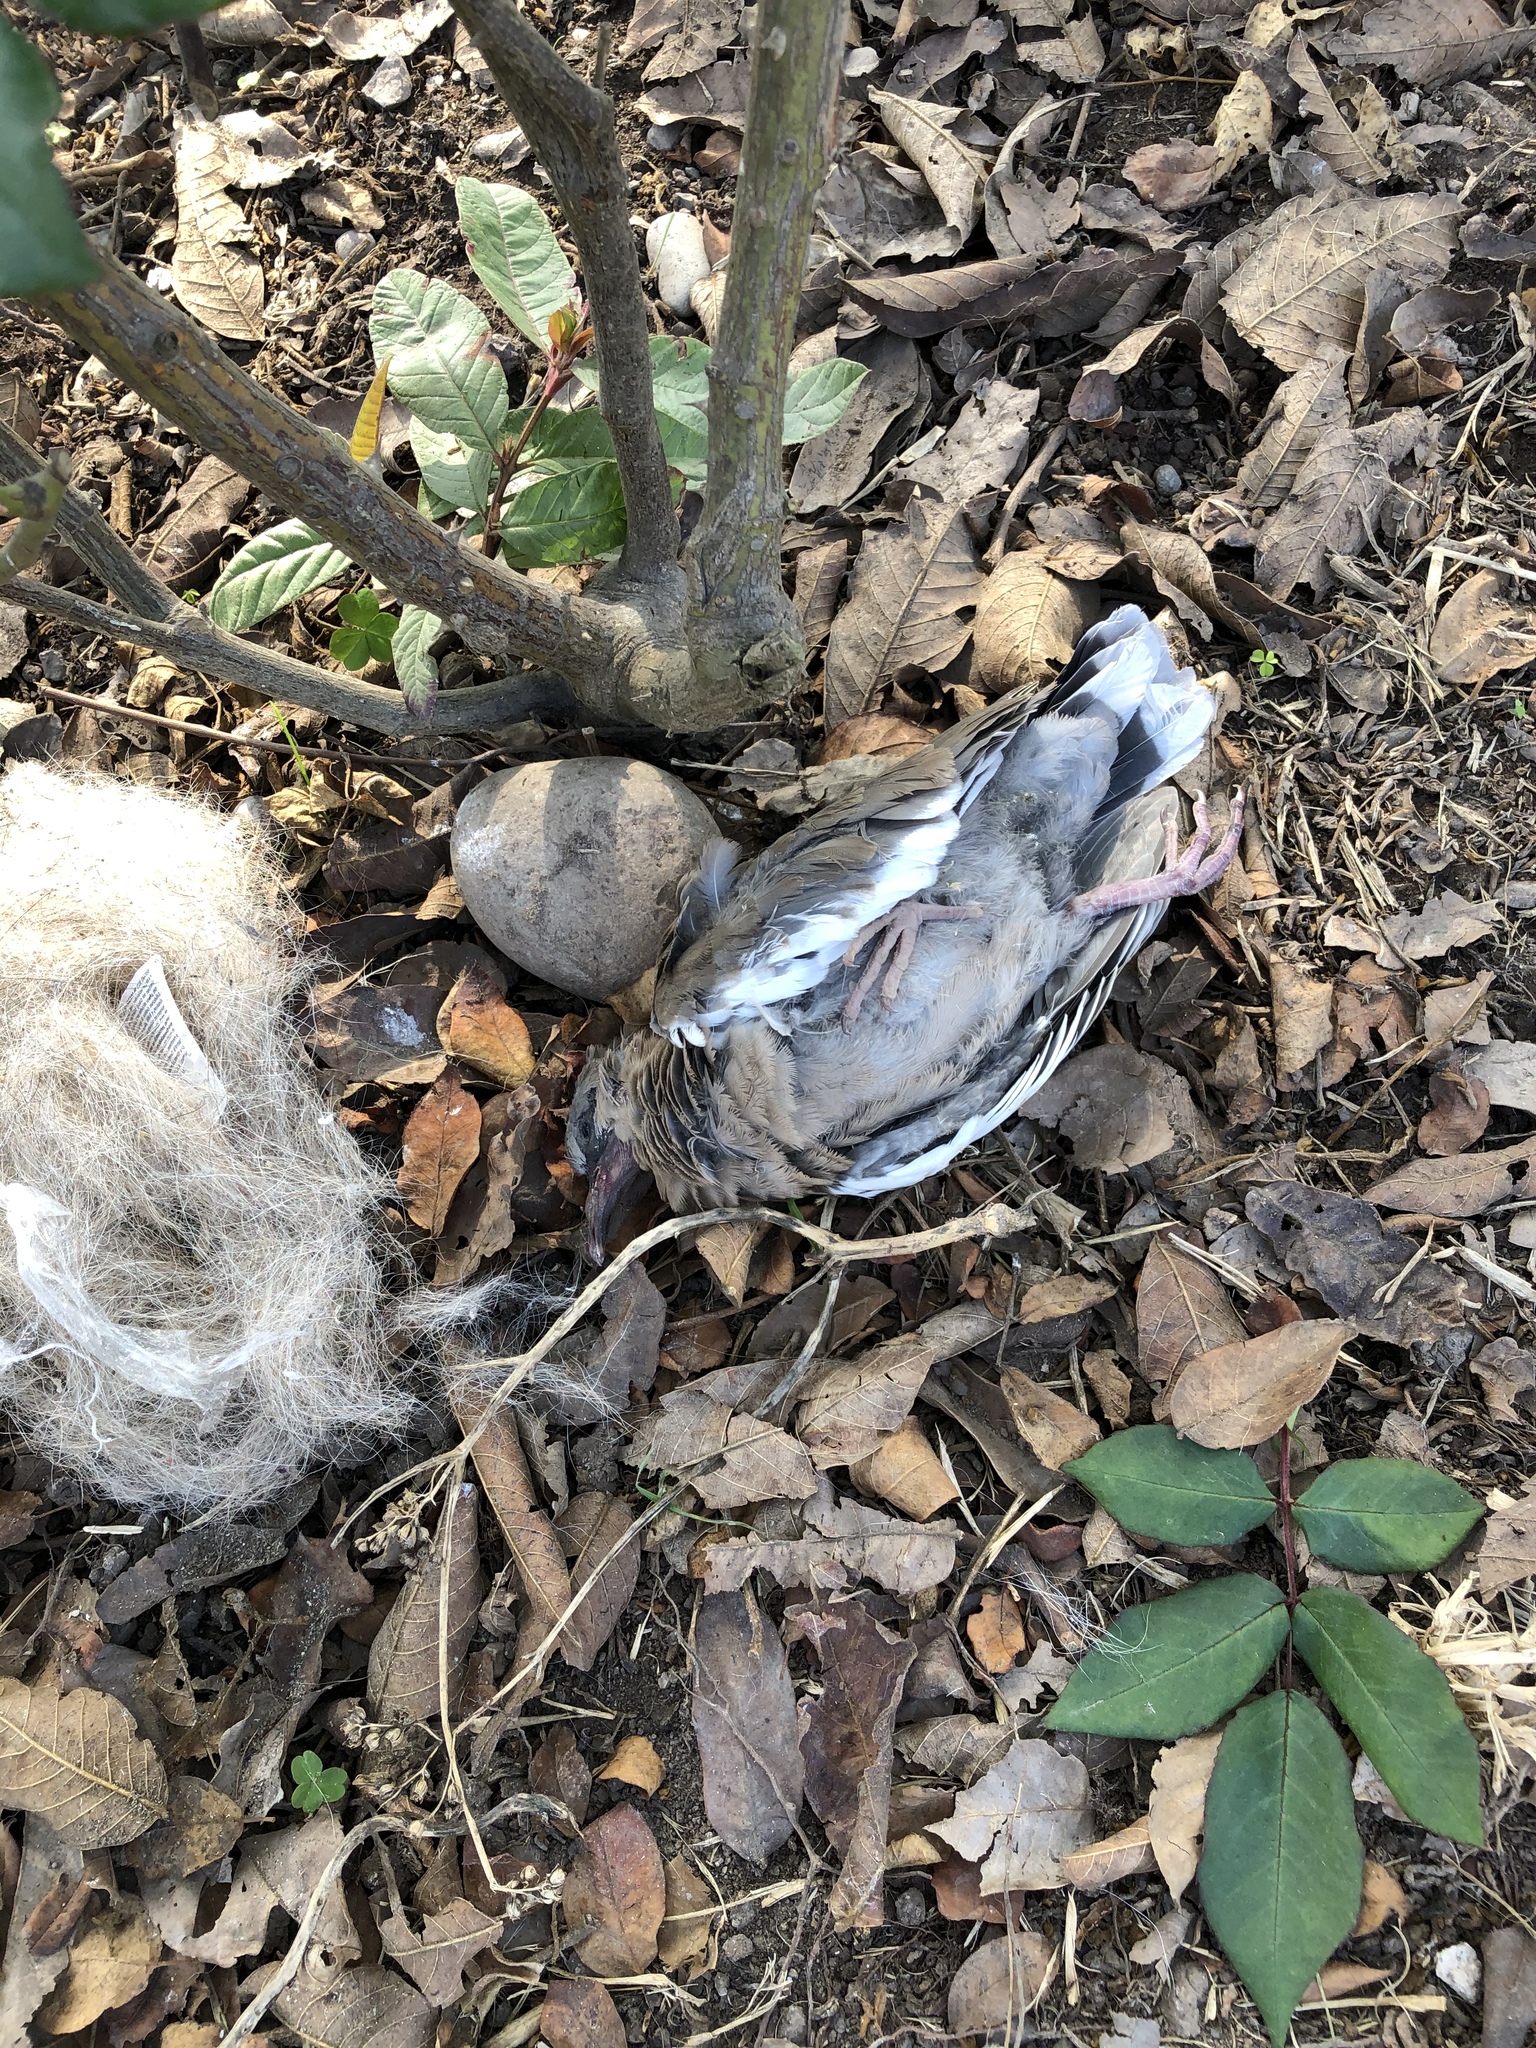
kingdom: Animalia
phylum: Chordata
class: Aves
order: Columbiformes
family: Columbidae
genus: Zenaida
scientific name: Zenaida meloda
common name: West peruvian dove
